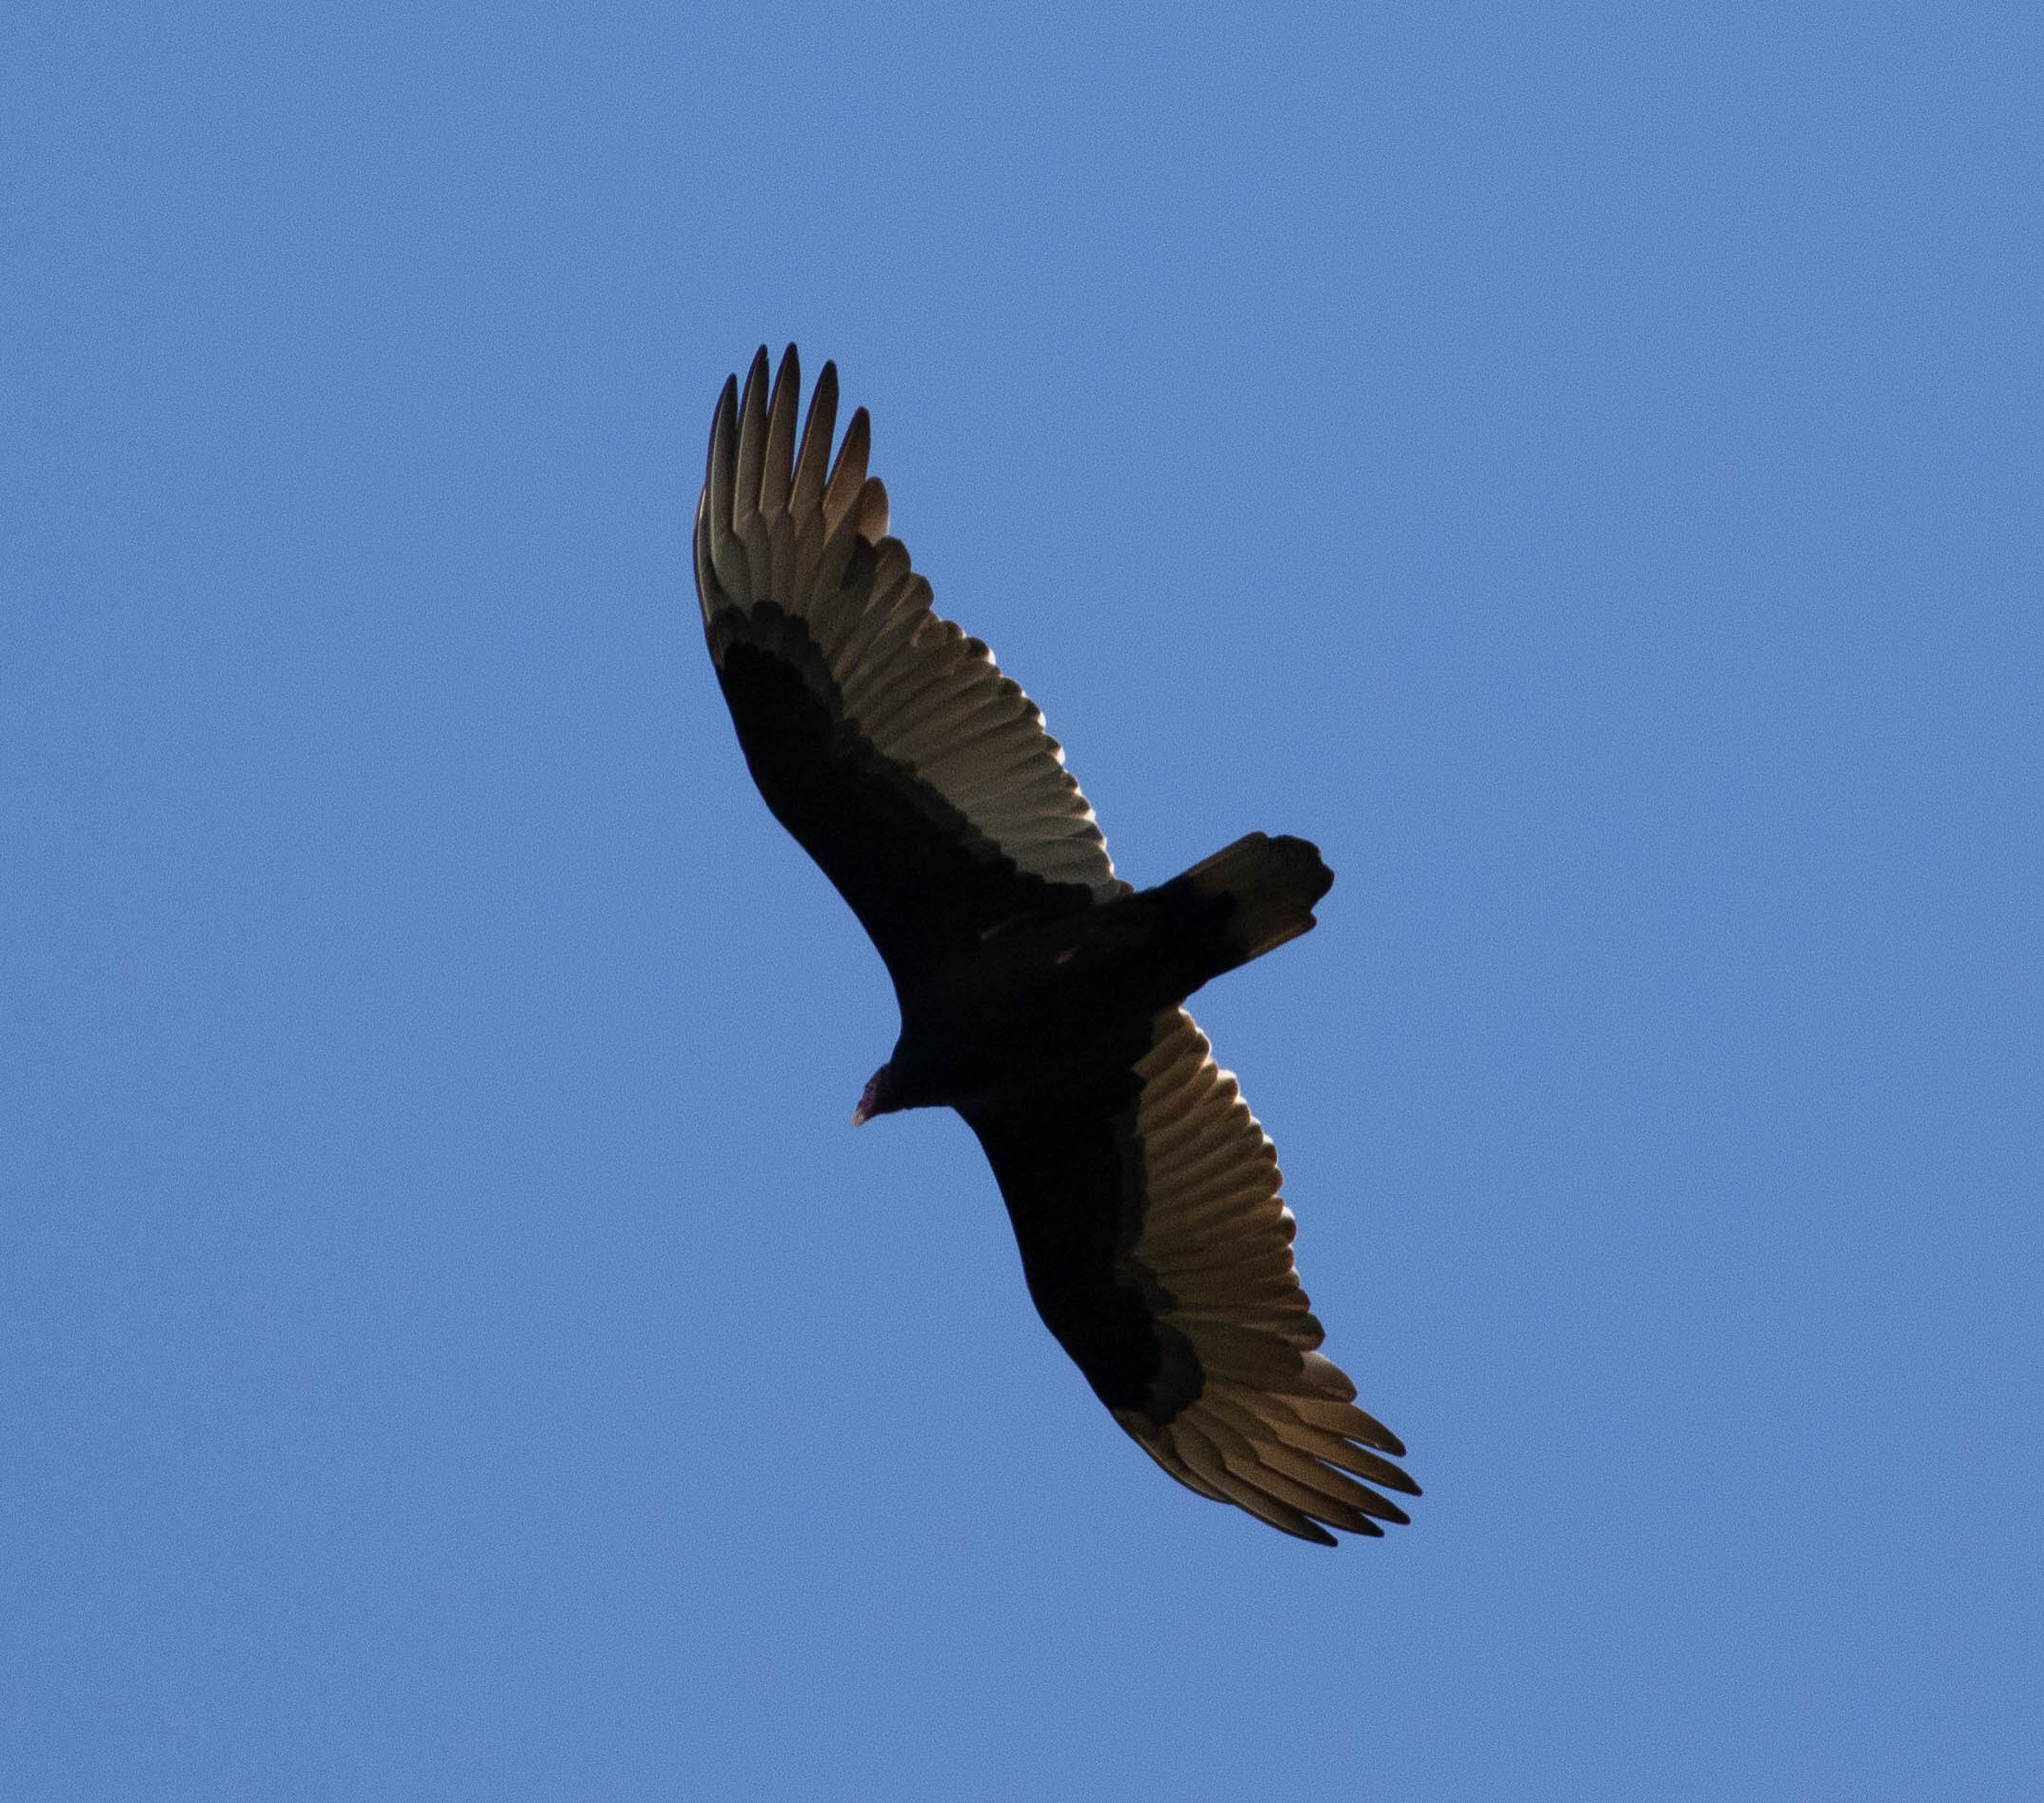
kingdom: Animalia
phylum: Chordata
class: Aves
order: Accipitriformes
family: Cathartidae
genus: Cathartes
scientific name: Cathartes aura
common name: Turkey vulture
